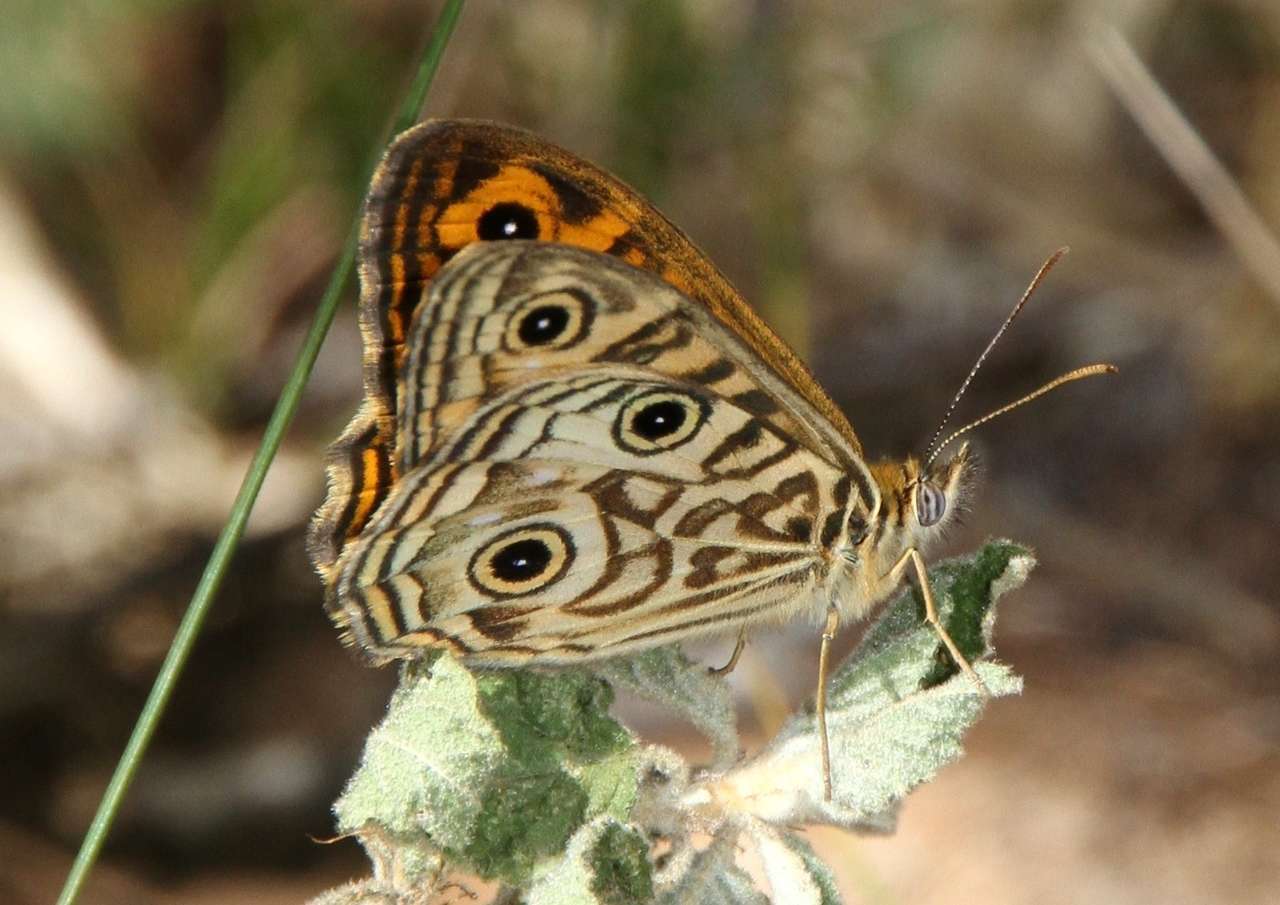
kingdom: Animalia
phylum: Arthropoda
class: Insecta
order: Lepidoptera
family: Nymphalidae
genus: Geitoneura
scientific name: Geitoneura acantha
